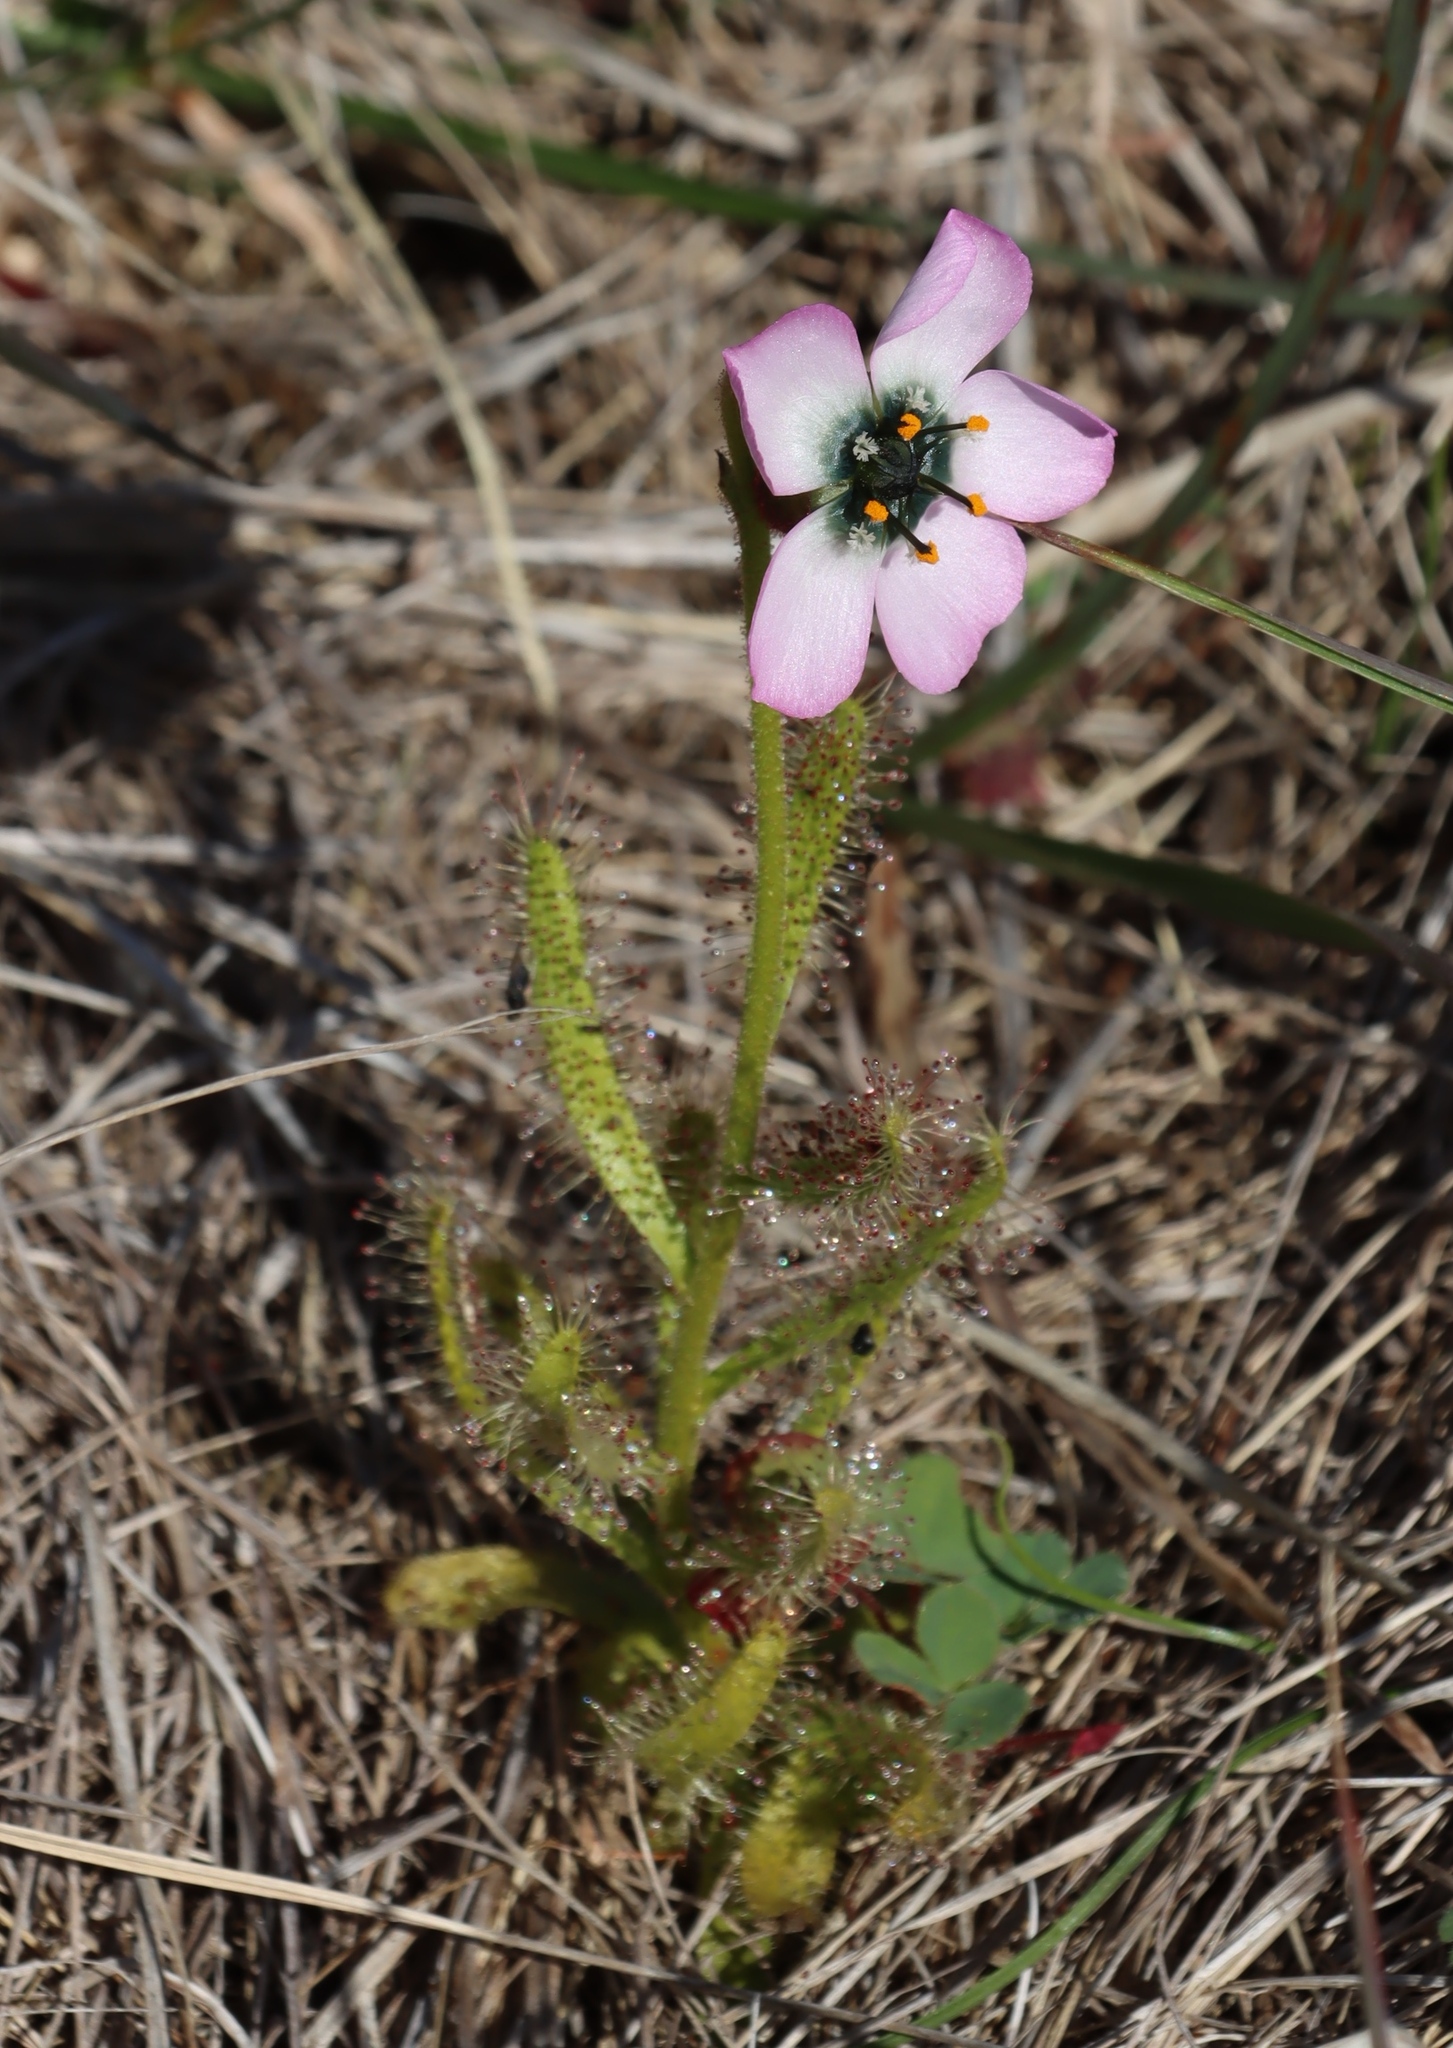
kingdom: Plantae
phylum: Tracheophyta
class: Magnoliopsida
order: Caryophyllales
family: Droseraceae
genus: Drosera
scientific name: Drosera cistiflora
